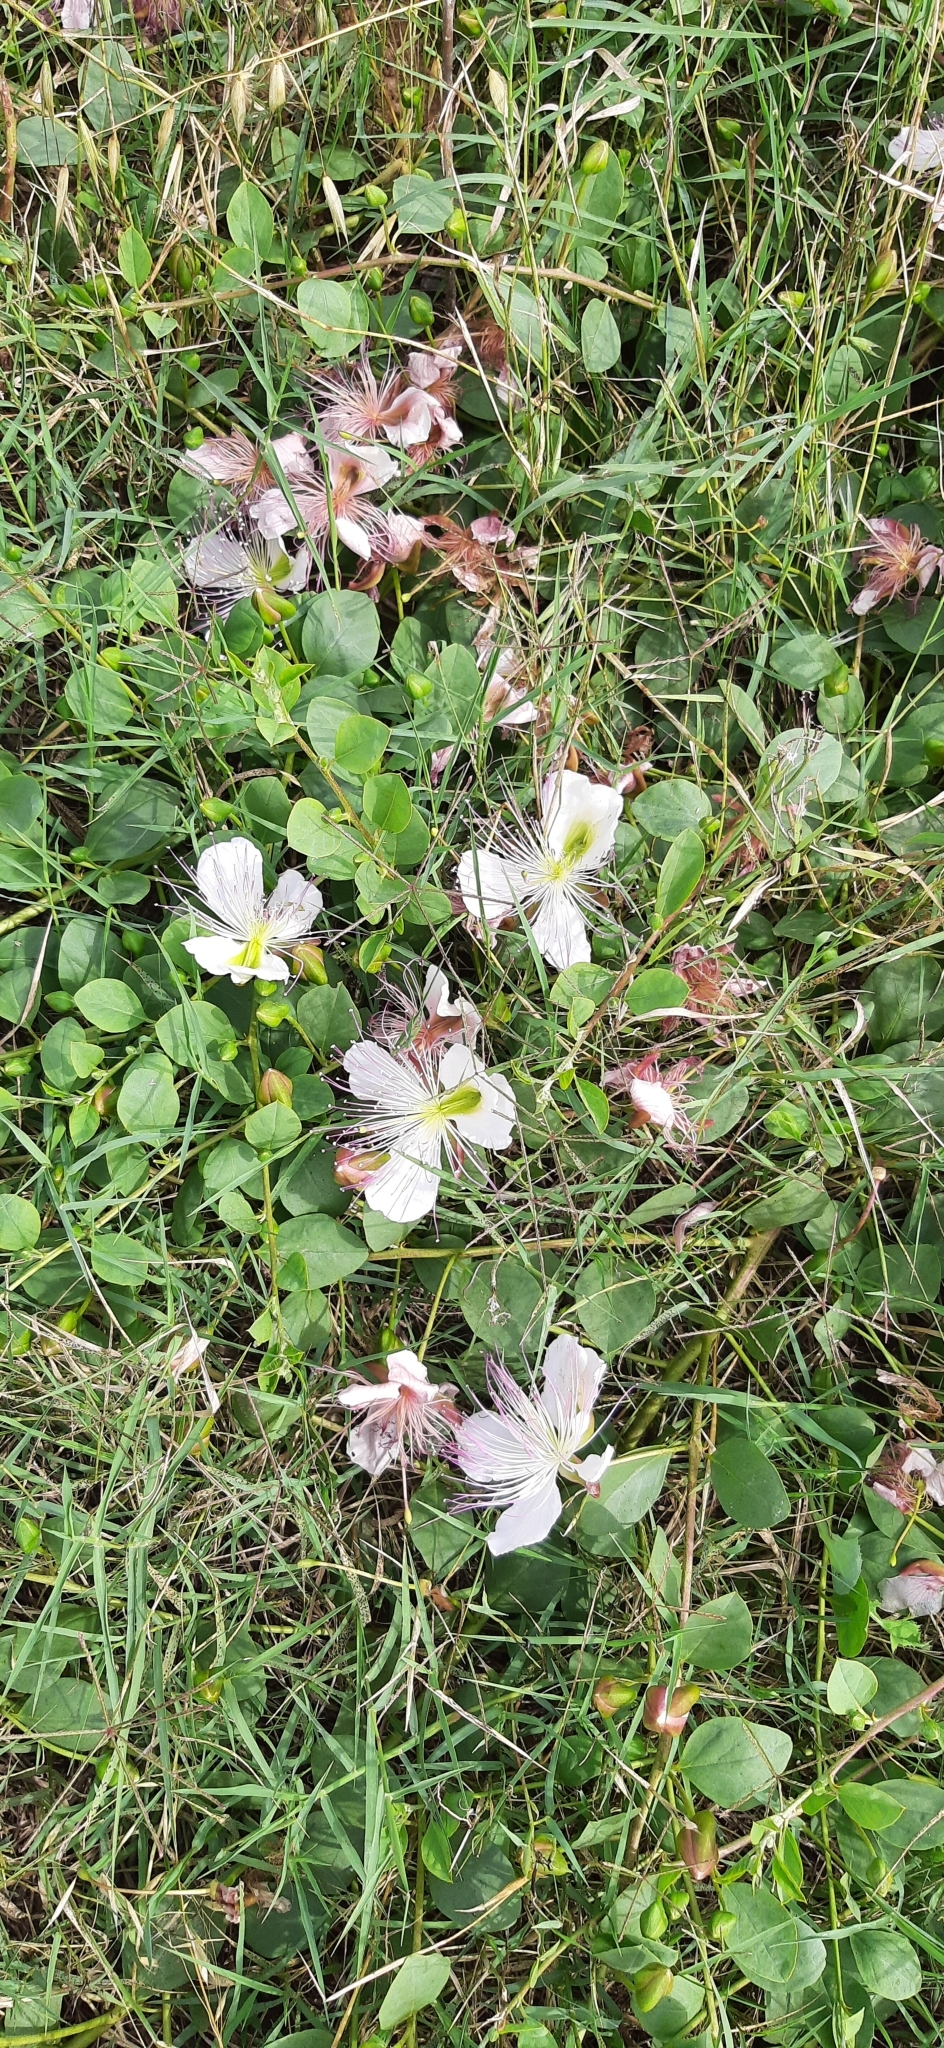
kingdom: Plantae
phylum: Tracheophyta
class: Magnoliopsida
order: Brassicales
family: Capparaceae
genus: Capparis
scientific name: Capparis spinosa
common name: Caper
